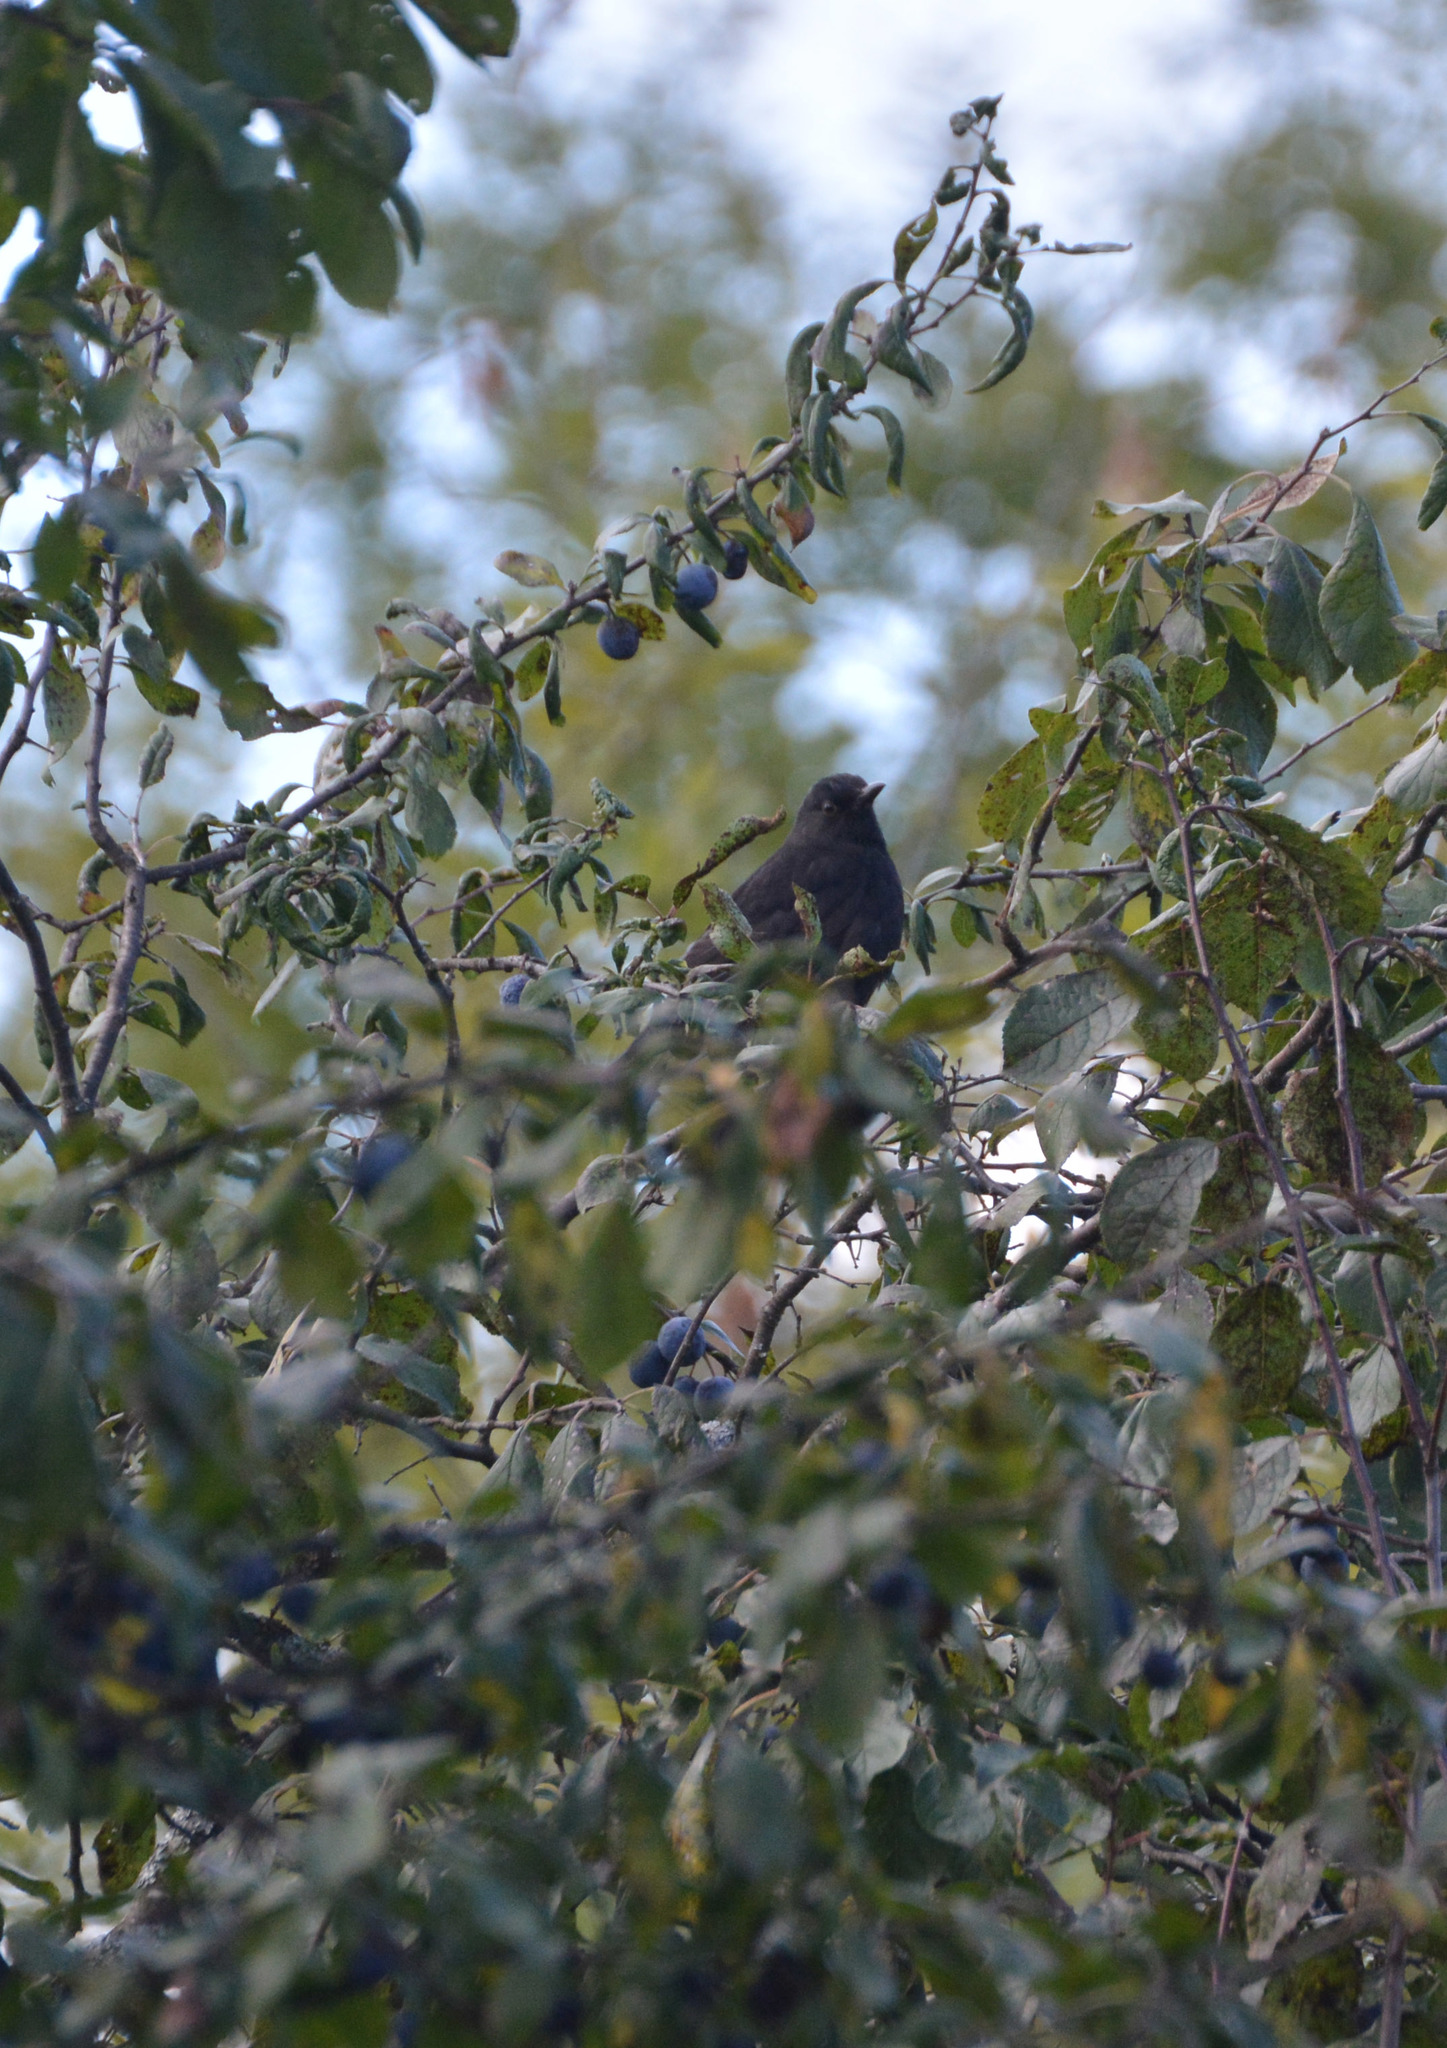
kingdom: Animalia
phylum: Chordata
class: Aves
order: Passeriformes
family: Turdidae
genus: Turdus
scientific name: Turdus merula
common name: Common blackbird
